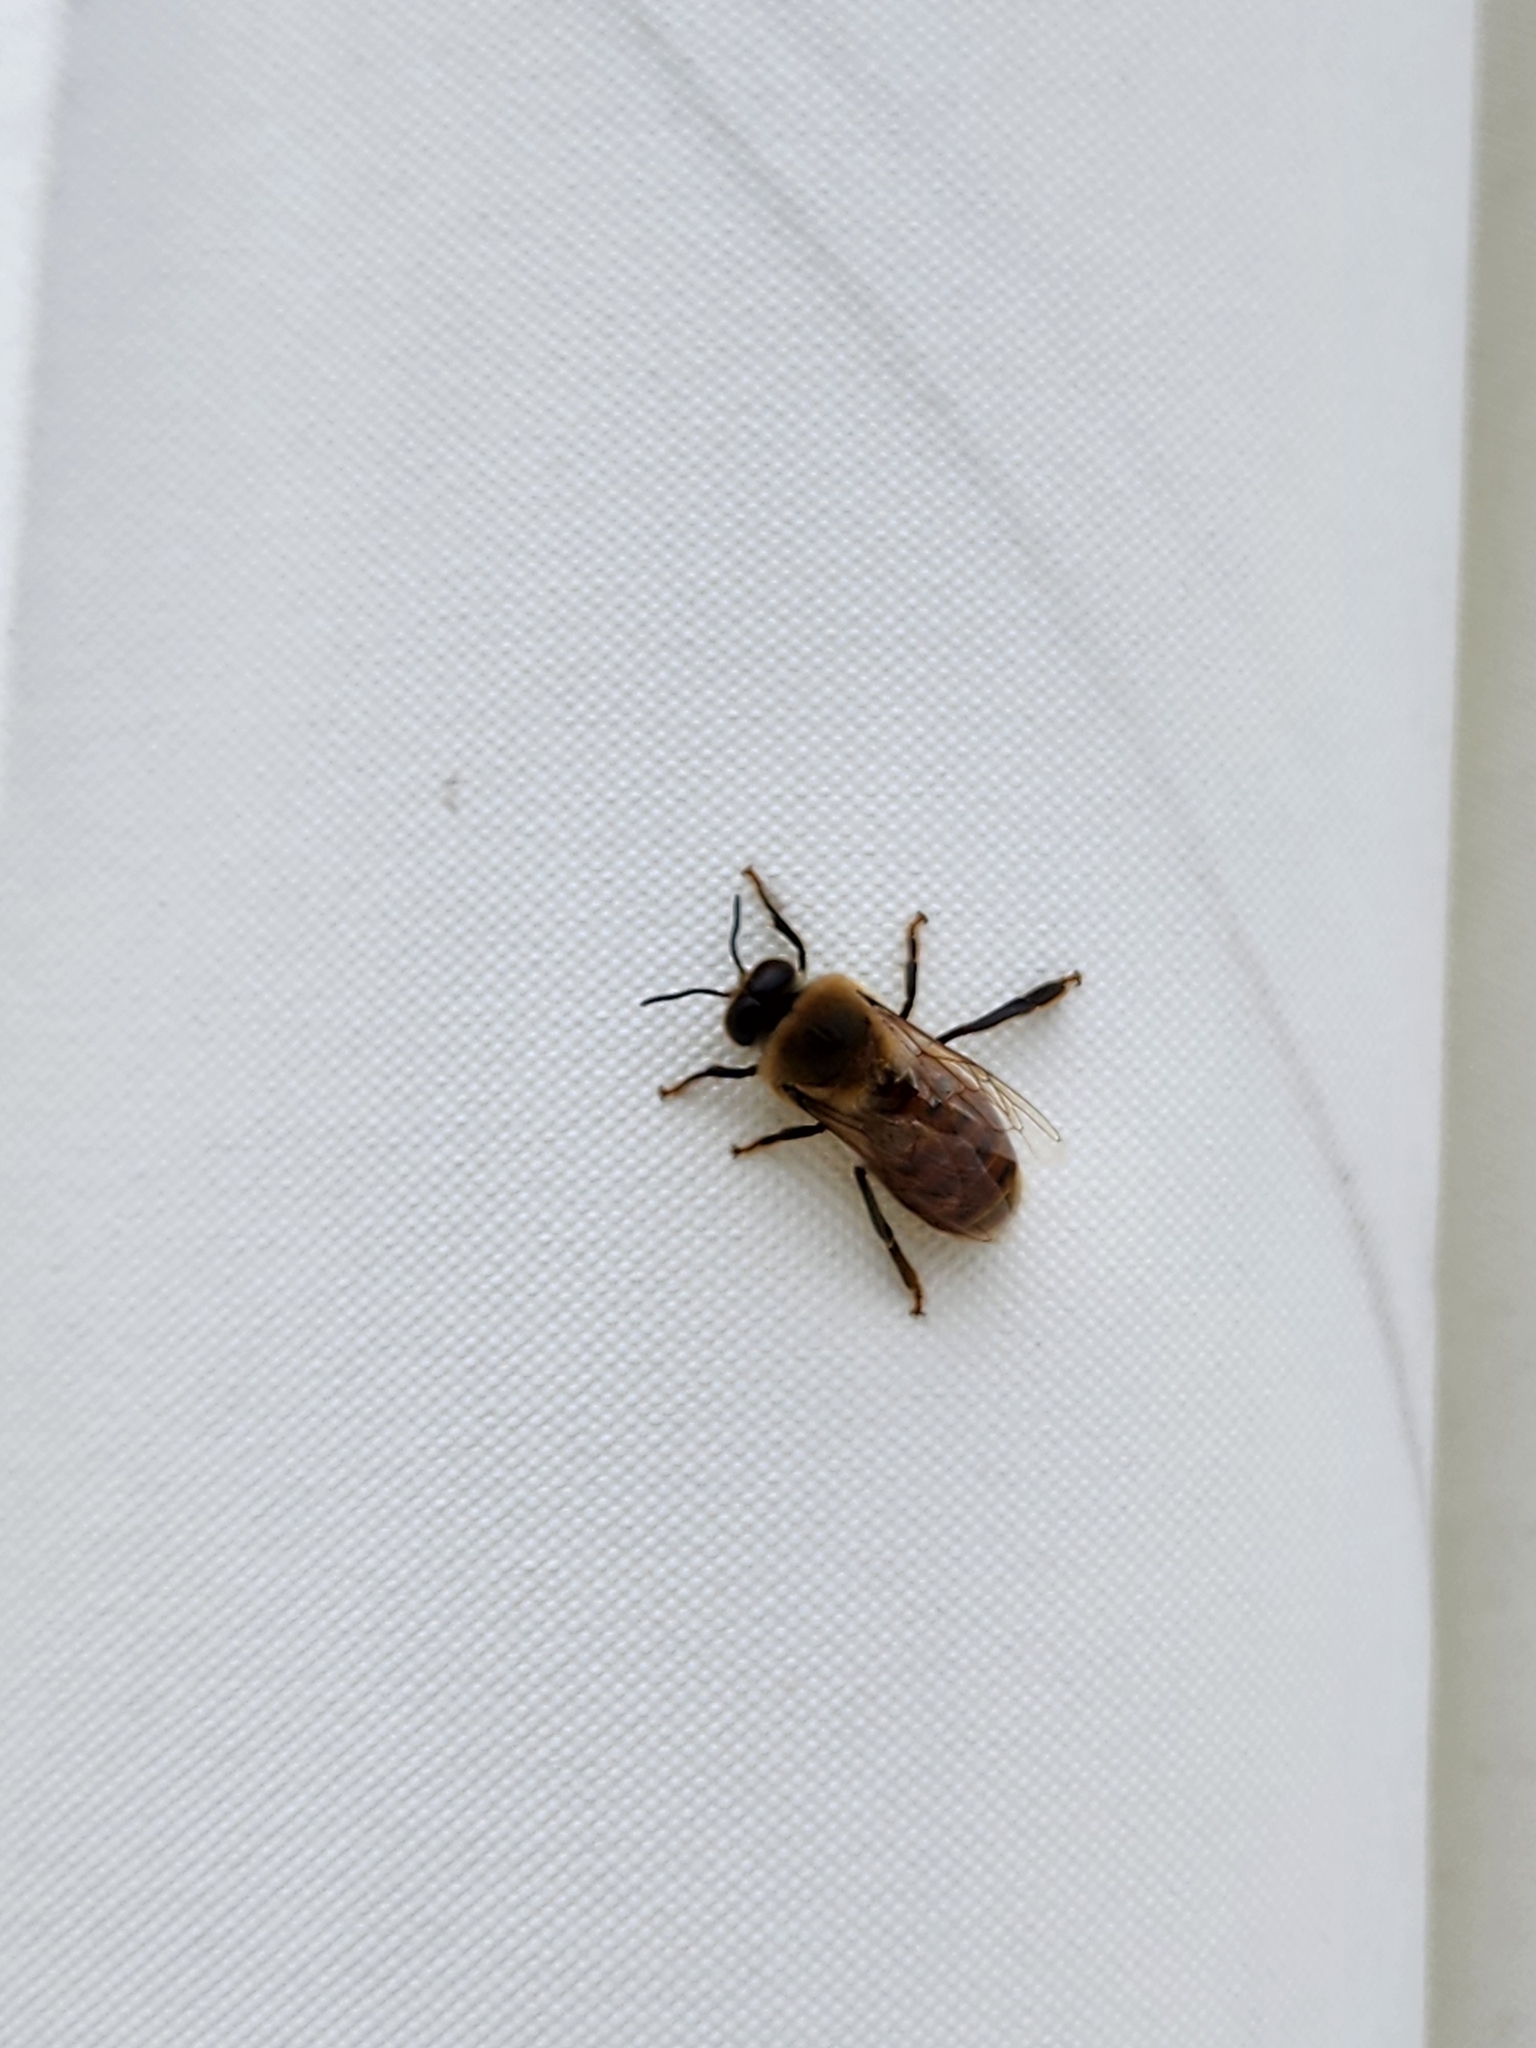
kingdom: Animalia
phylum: Arthropoda
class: Insecta
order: Hymenoptera
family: Apidae
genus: Apis
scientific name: Apis mellifera
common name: Honey bee
